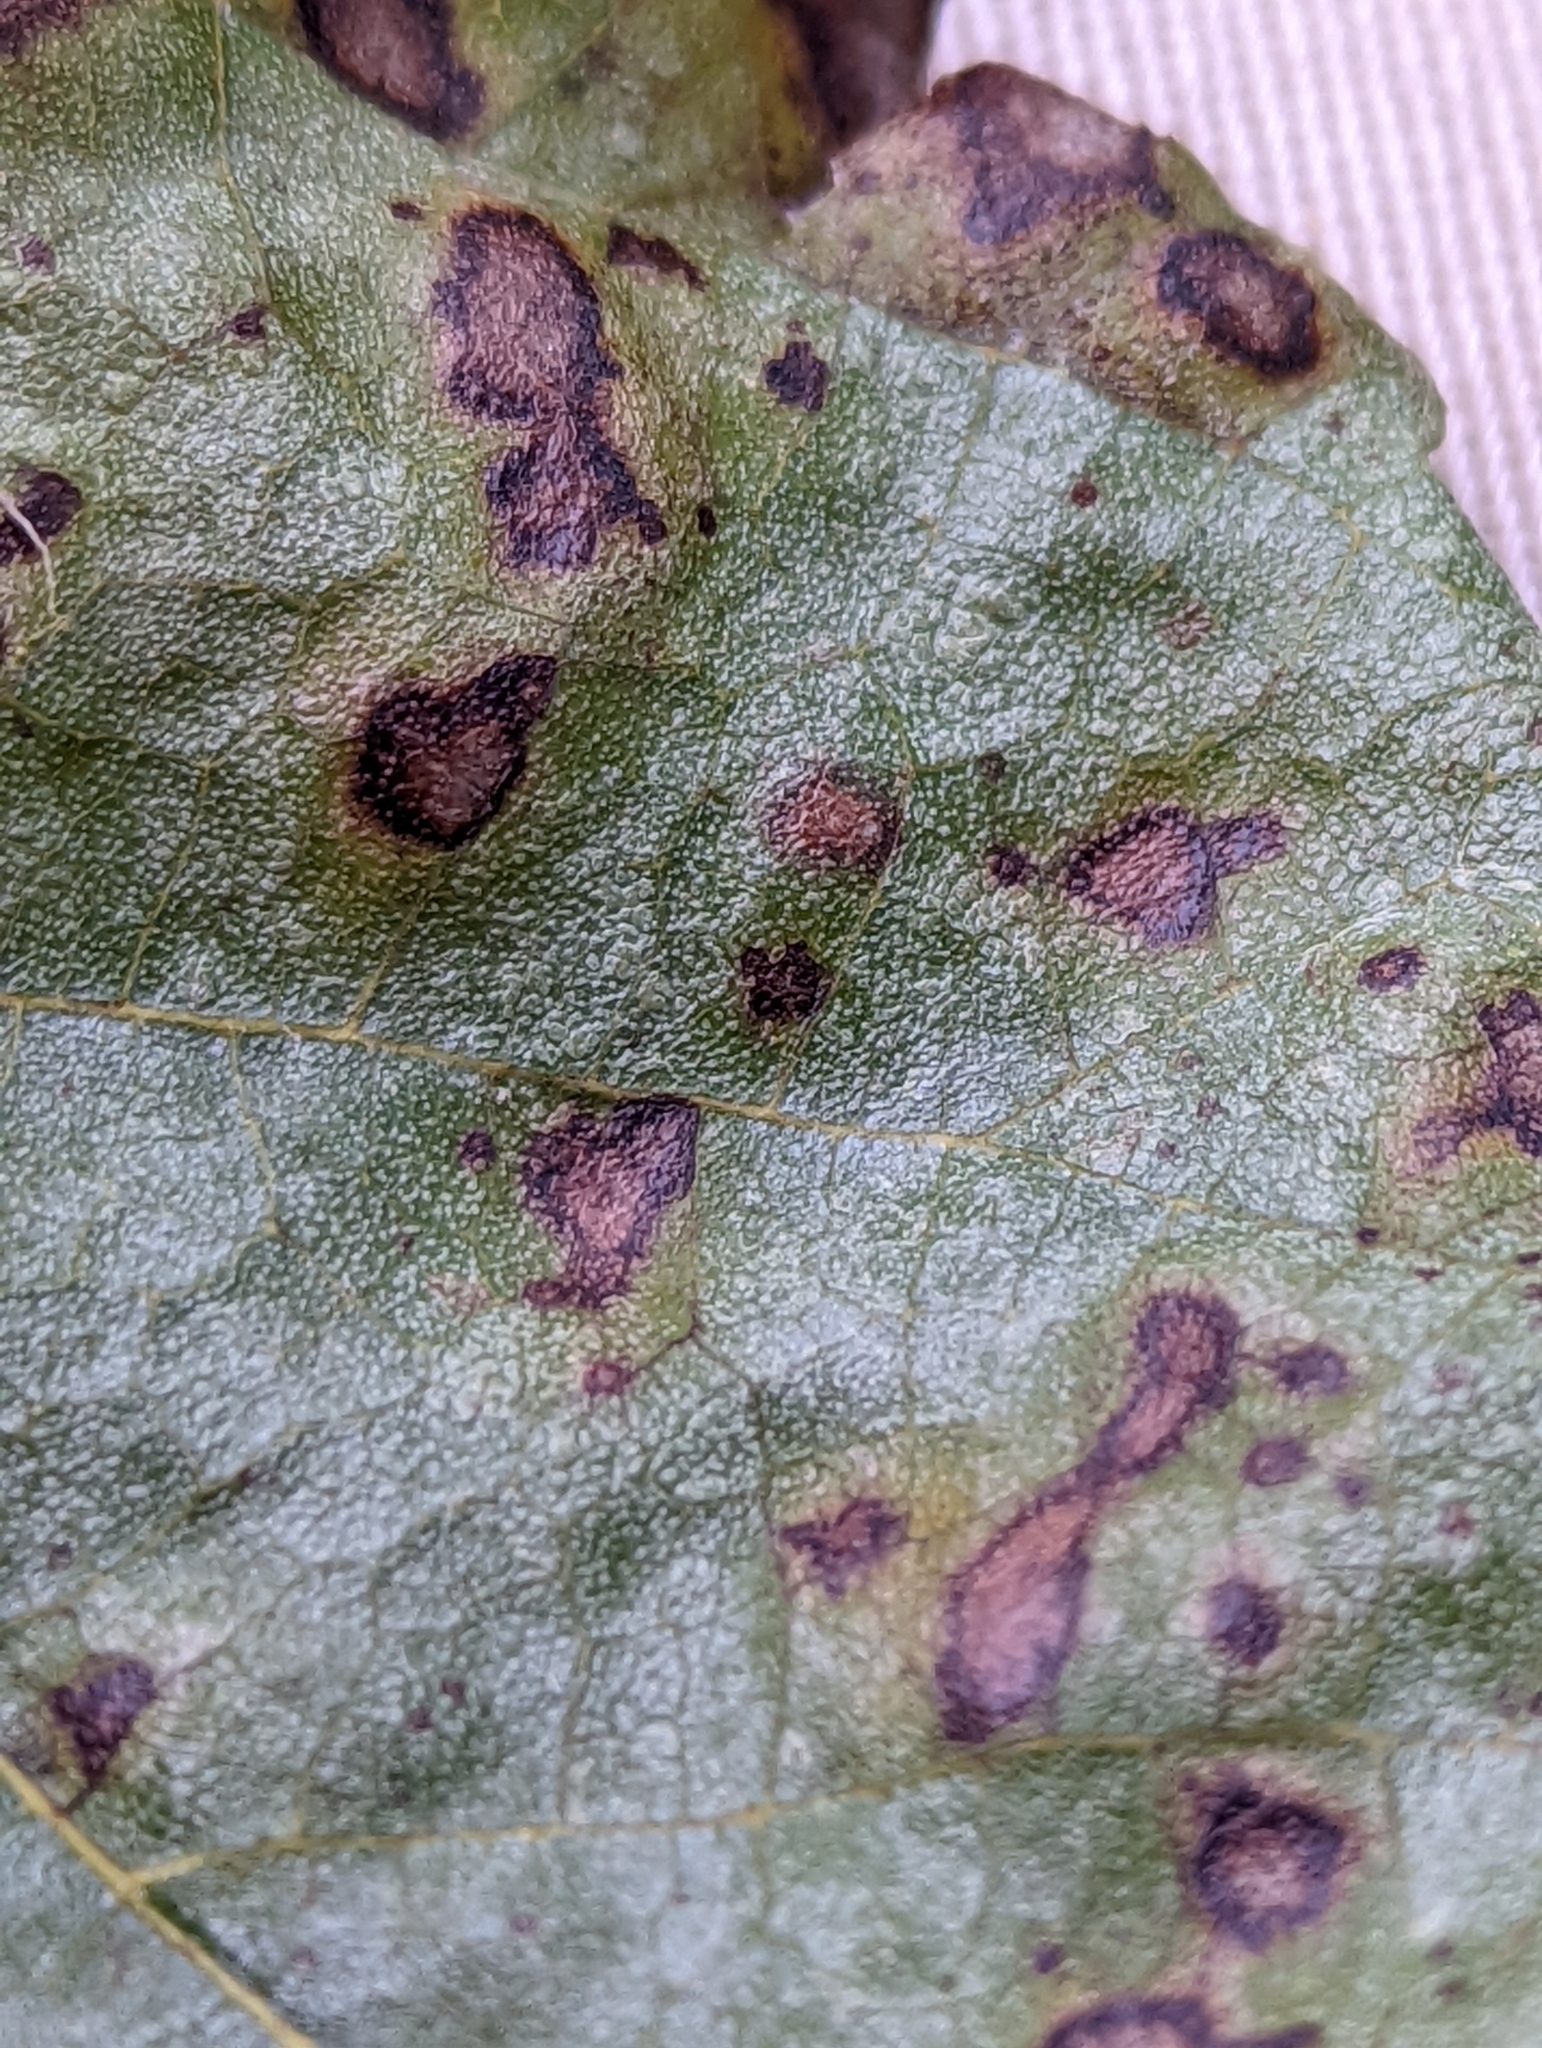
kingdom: Fungi
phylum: Ascomycota
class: Dothideomycetes
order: Mycosphaerellales
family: Mycosphaerellaceae
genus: Cercospora
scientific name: Cercospora moricola
